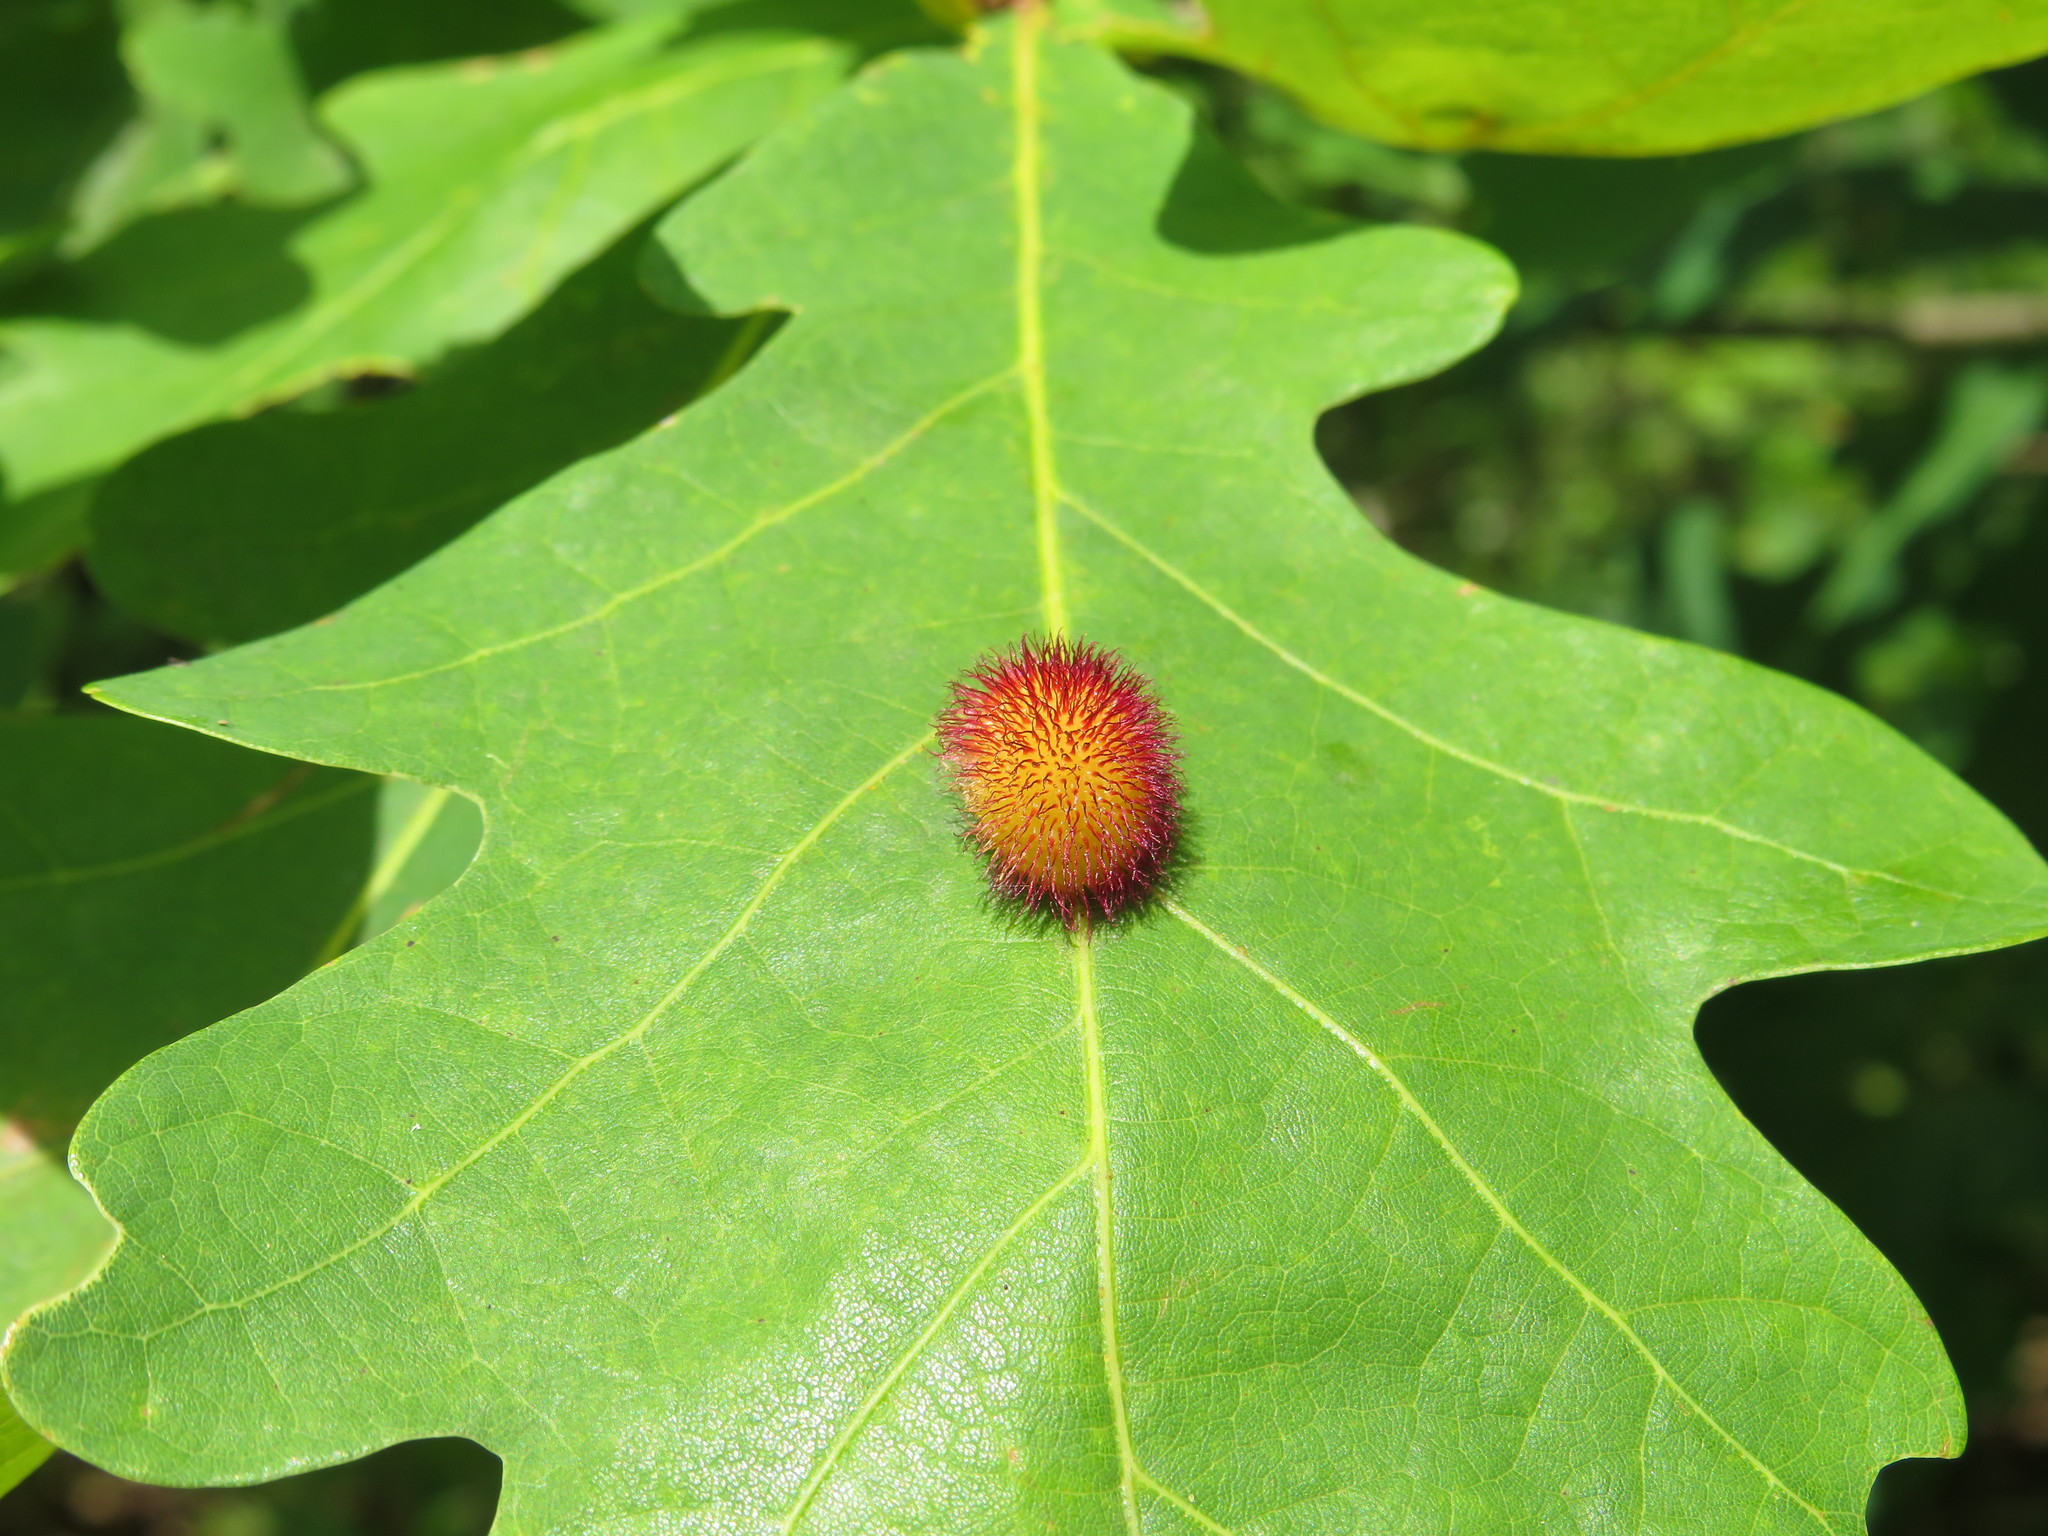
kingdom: Animalia
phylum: Arthropoda
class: Insecta
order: Hymenoptera
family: Cynipidae
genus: Acraspis
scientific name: Acraspis erinacei
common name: Hedgehog gall wasp
